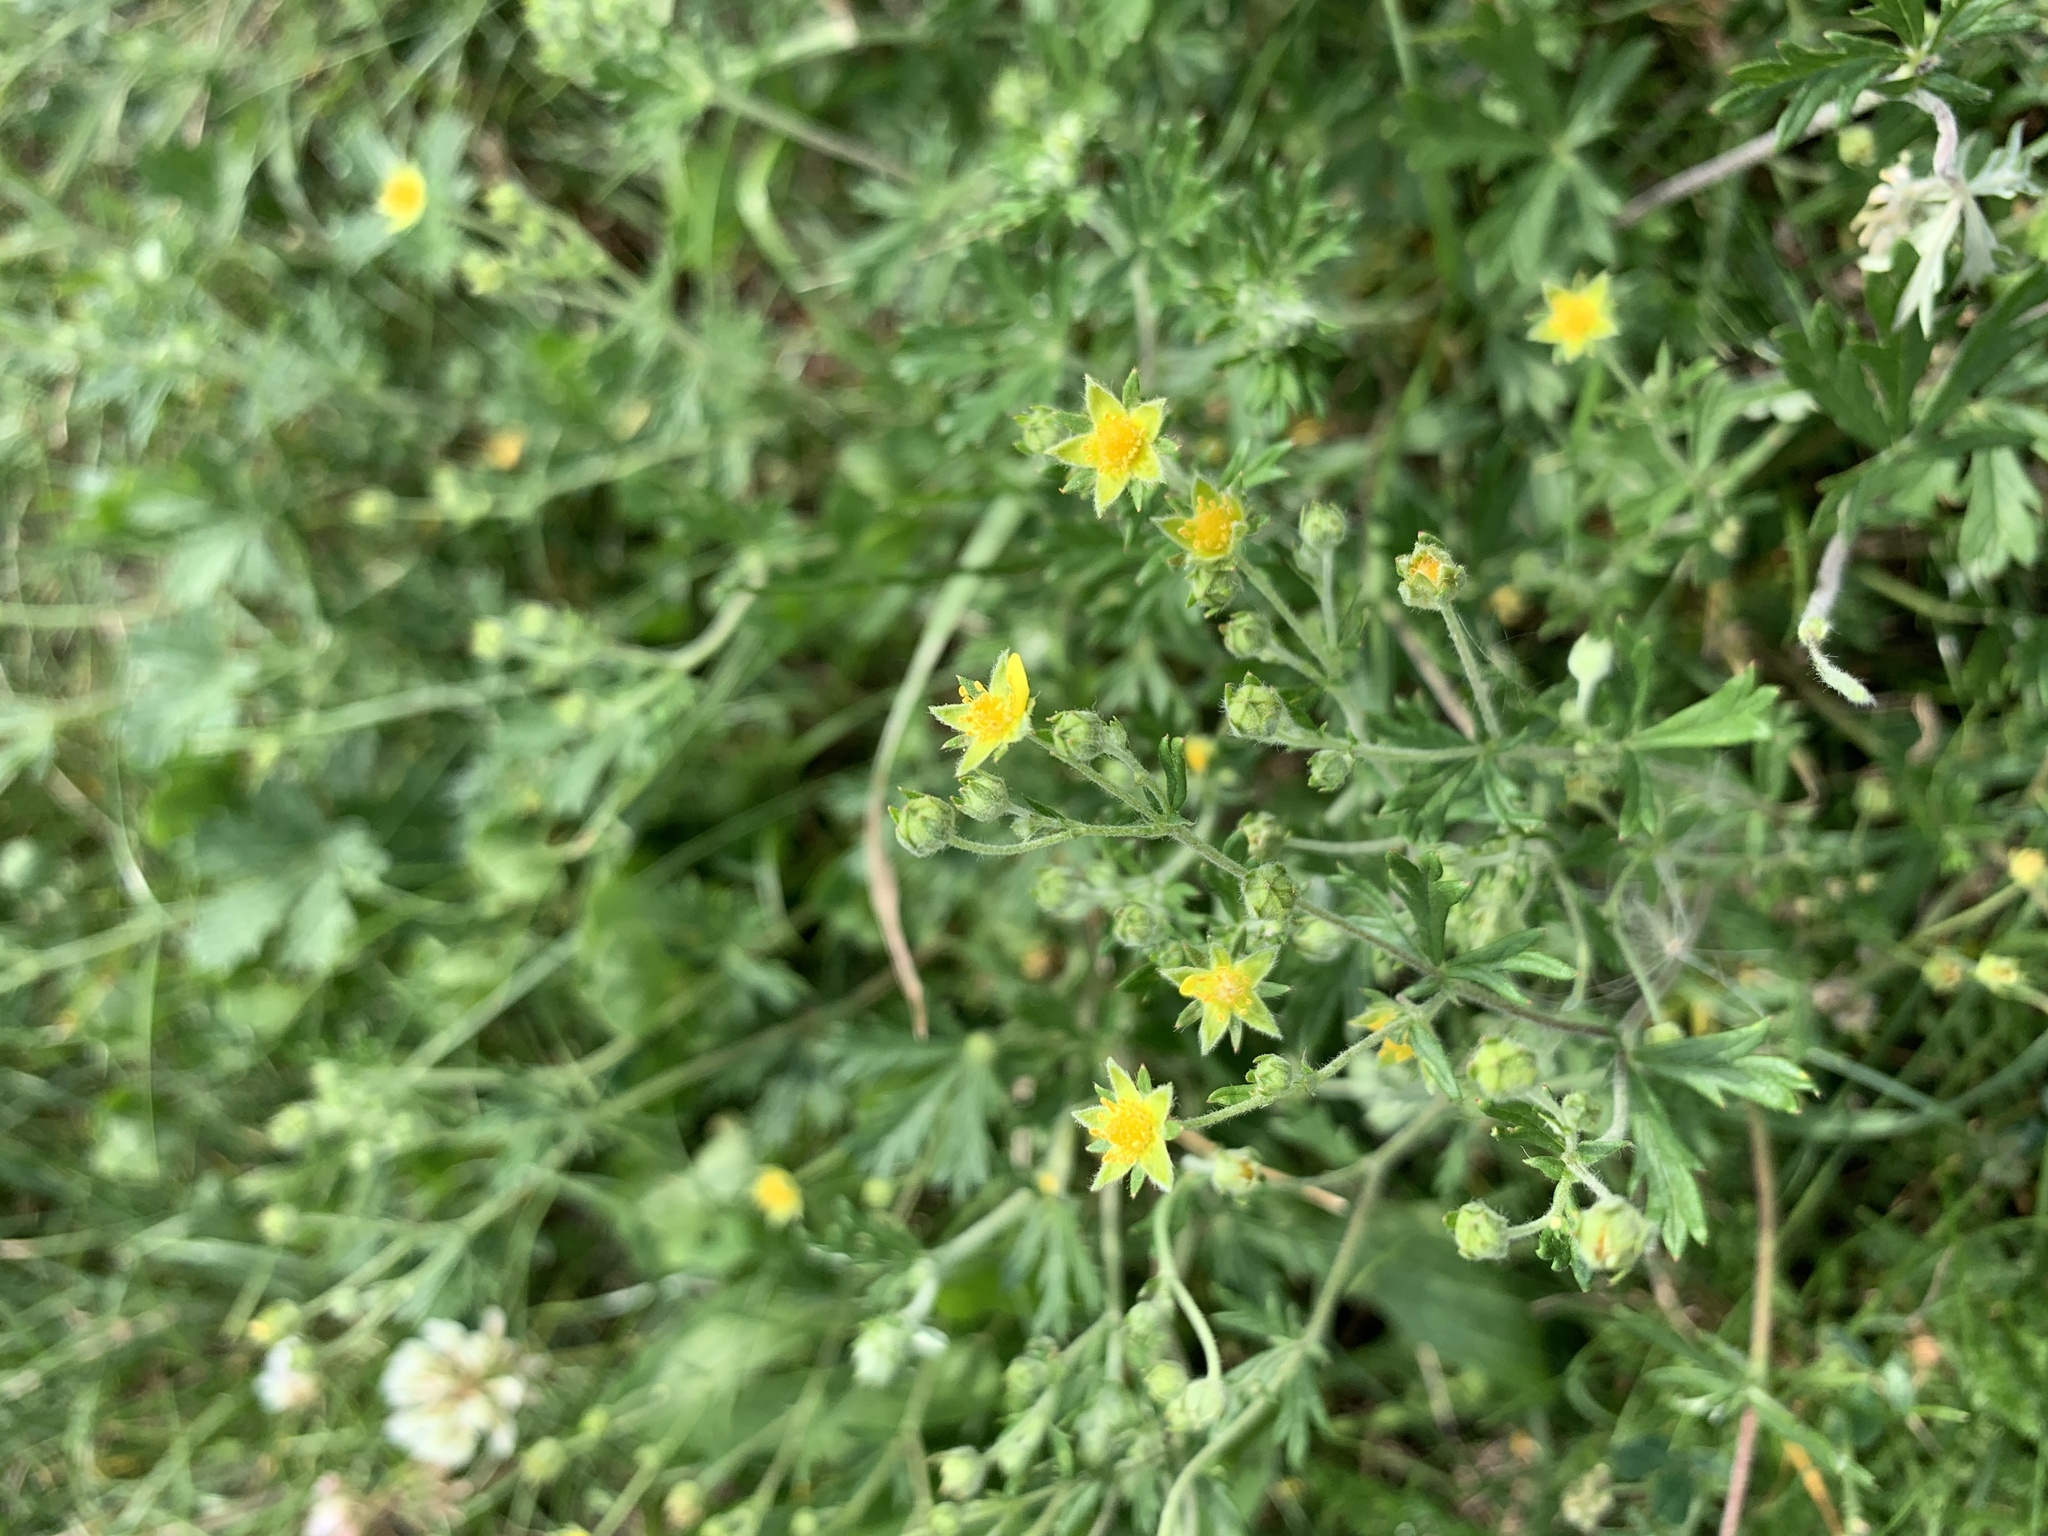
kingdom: Plantae
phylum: Tracheophyta
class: Magnoliopsida
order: Rosales
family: Rosaceae
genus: Potentilla
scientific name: Potentilla argentea
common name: Hoary cinquefoil
